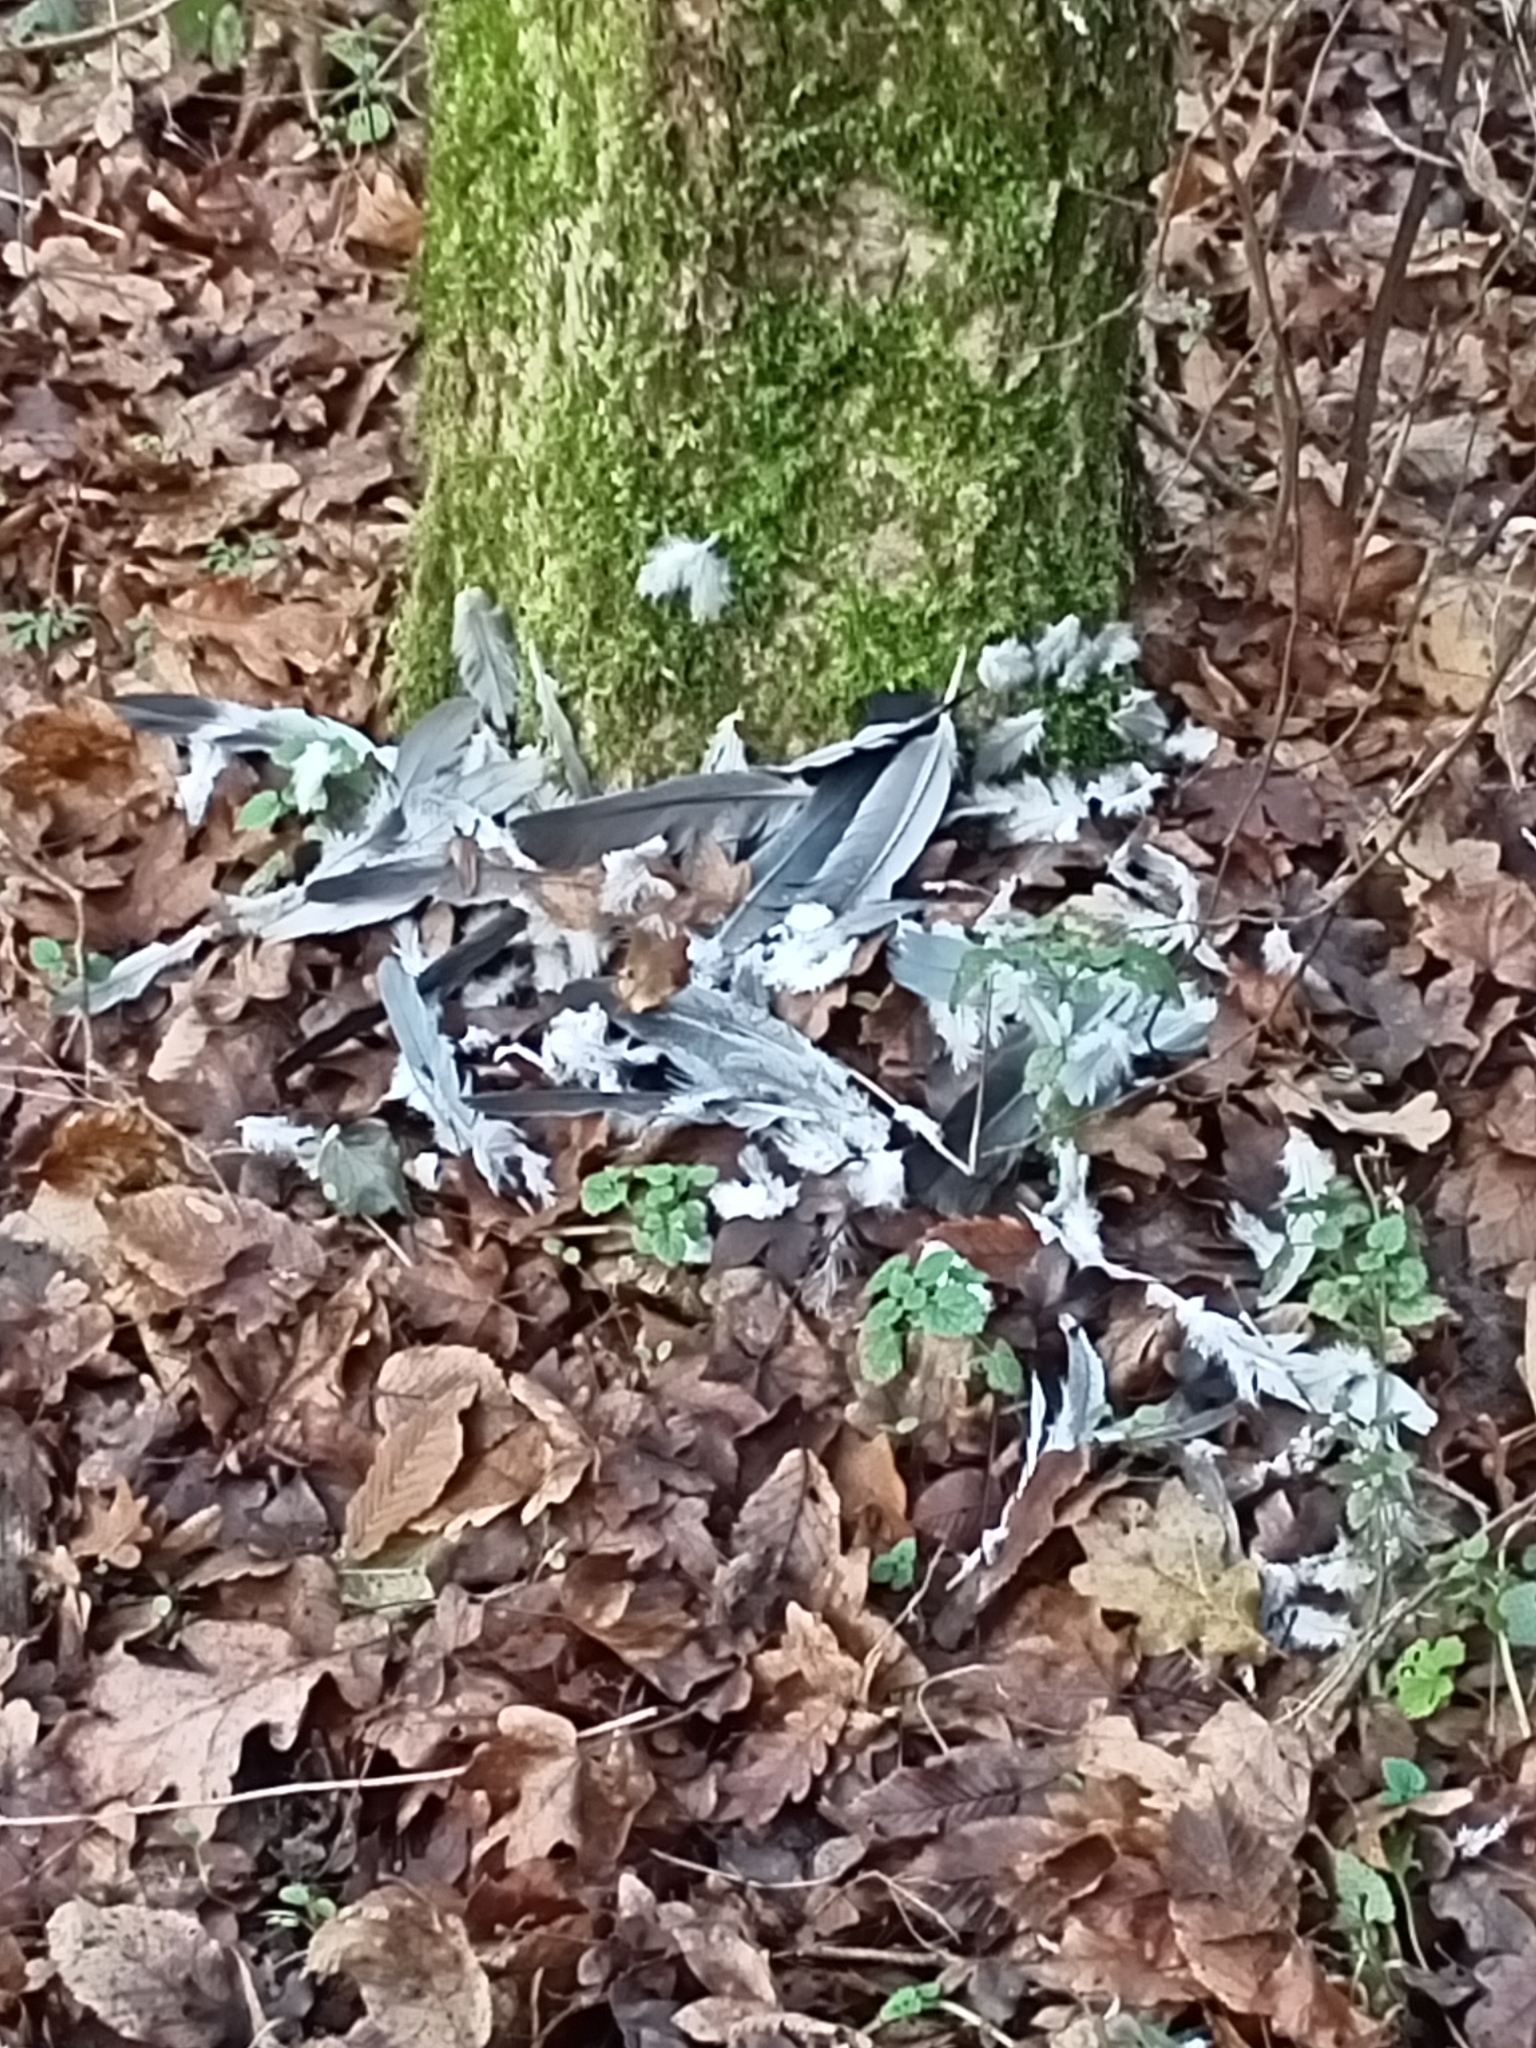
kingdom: Animalia
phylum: Chordata
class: Aves
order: Columbiformes
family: Columbidae
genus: Columba
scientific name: Columba palumbus
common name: Common wood pigeon
